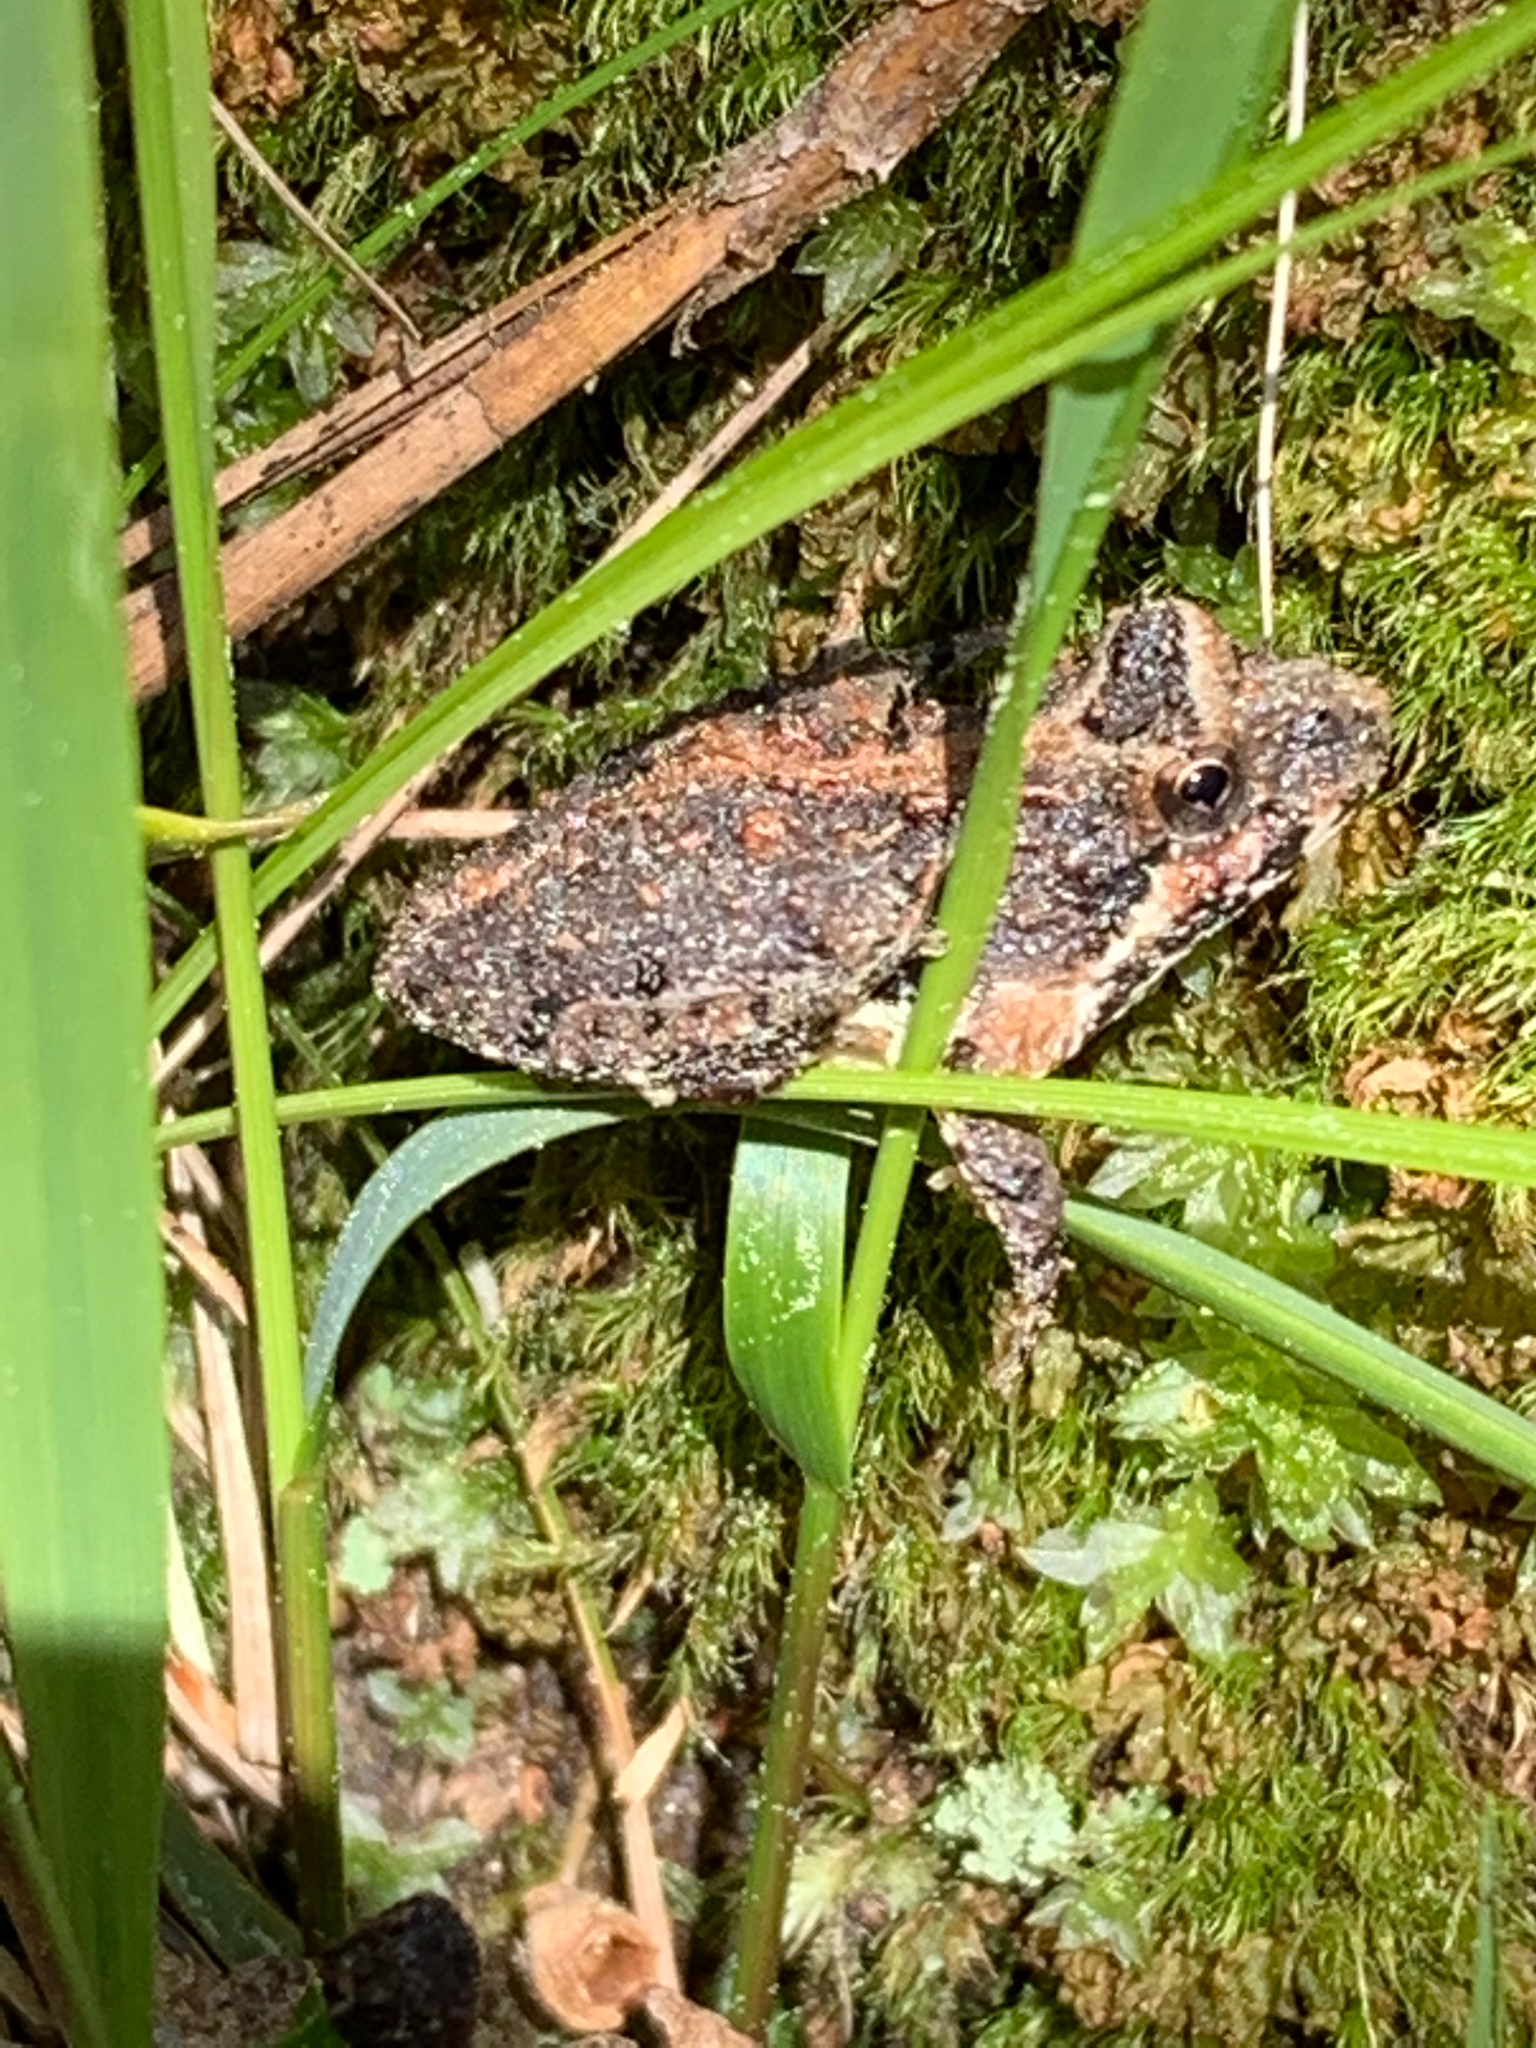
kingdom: Animalia
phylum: Chordata
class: Amphibia
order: Anura
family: Hylidae
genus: Acris
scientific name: Acris crepitans
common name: Northern cricket frog
